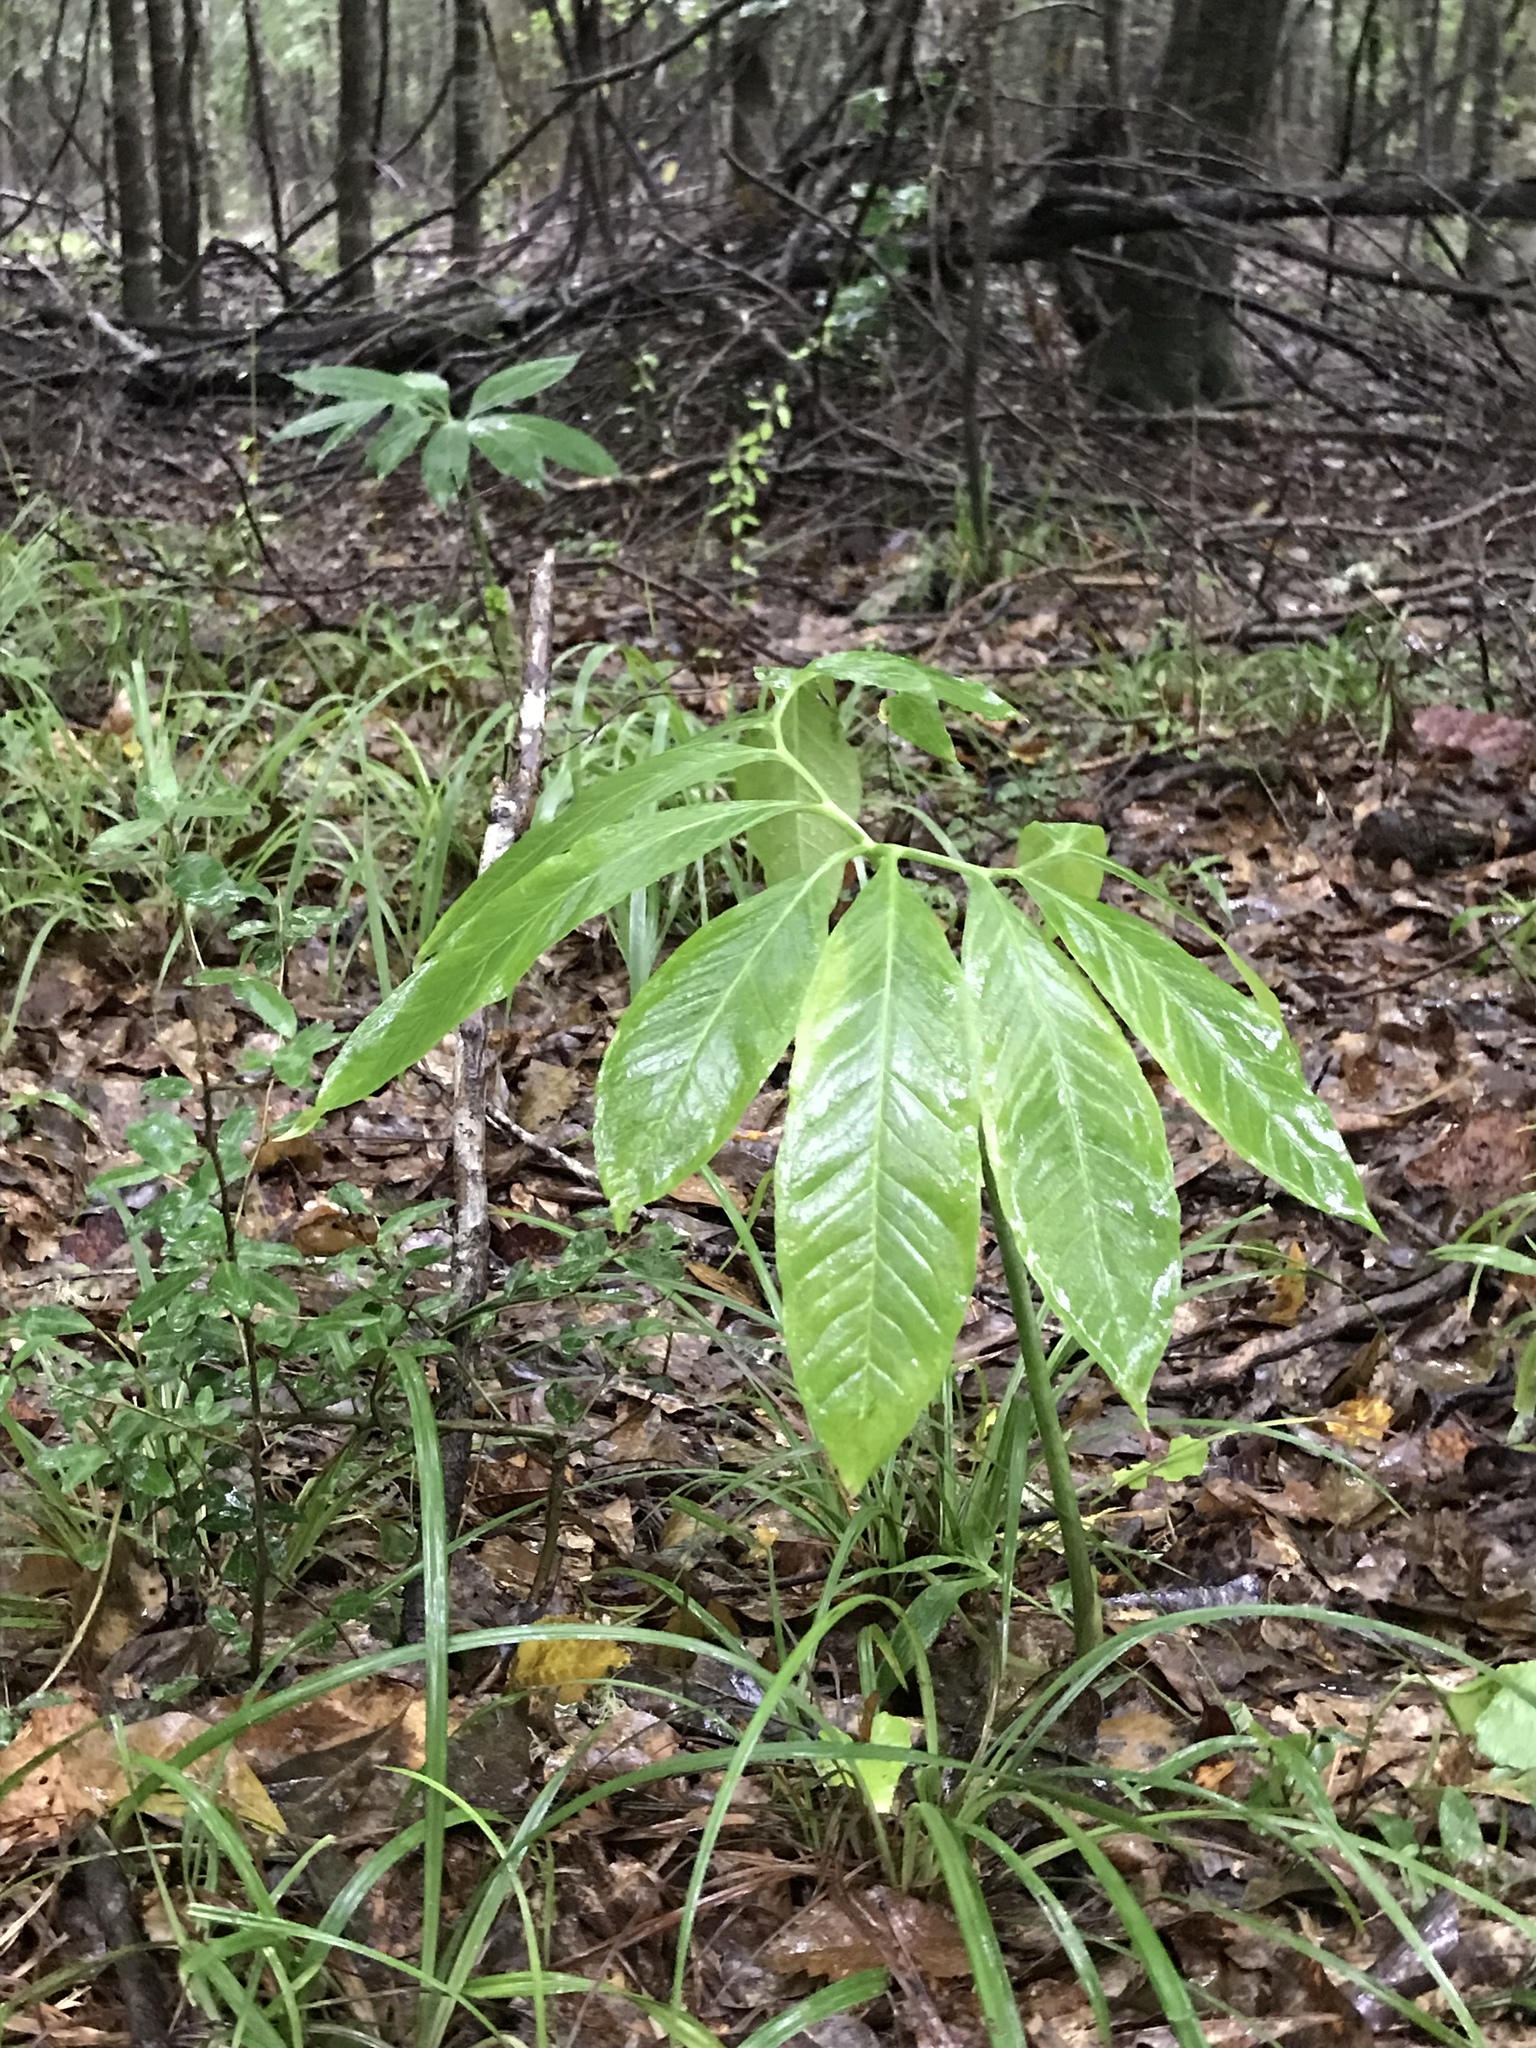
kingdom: Plantae
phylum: Tracheophyta
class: Liliopsida
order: Alismatales
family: Araceae
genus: Arisaema
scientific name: Arisaema dracontium
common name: Dragon-arum
